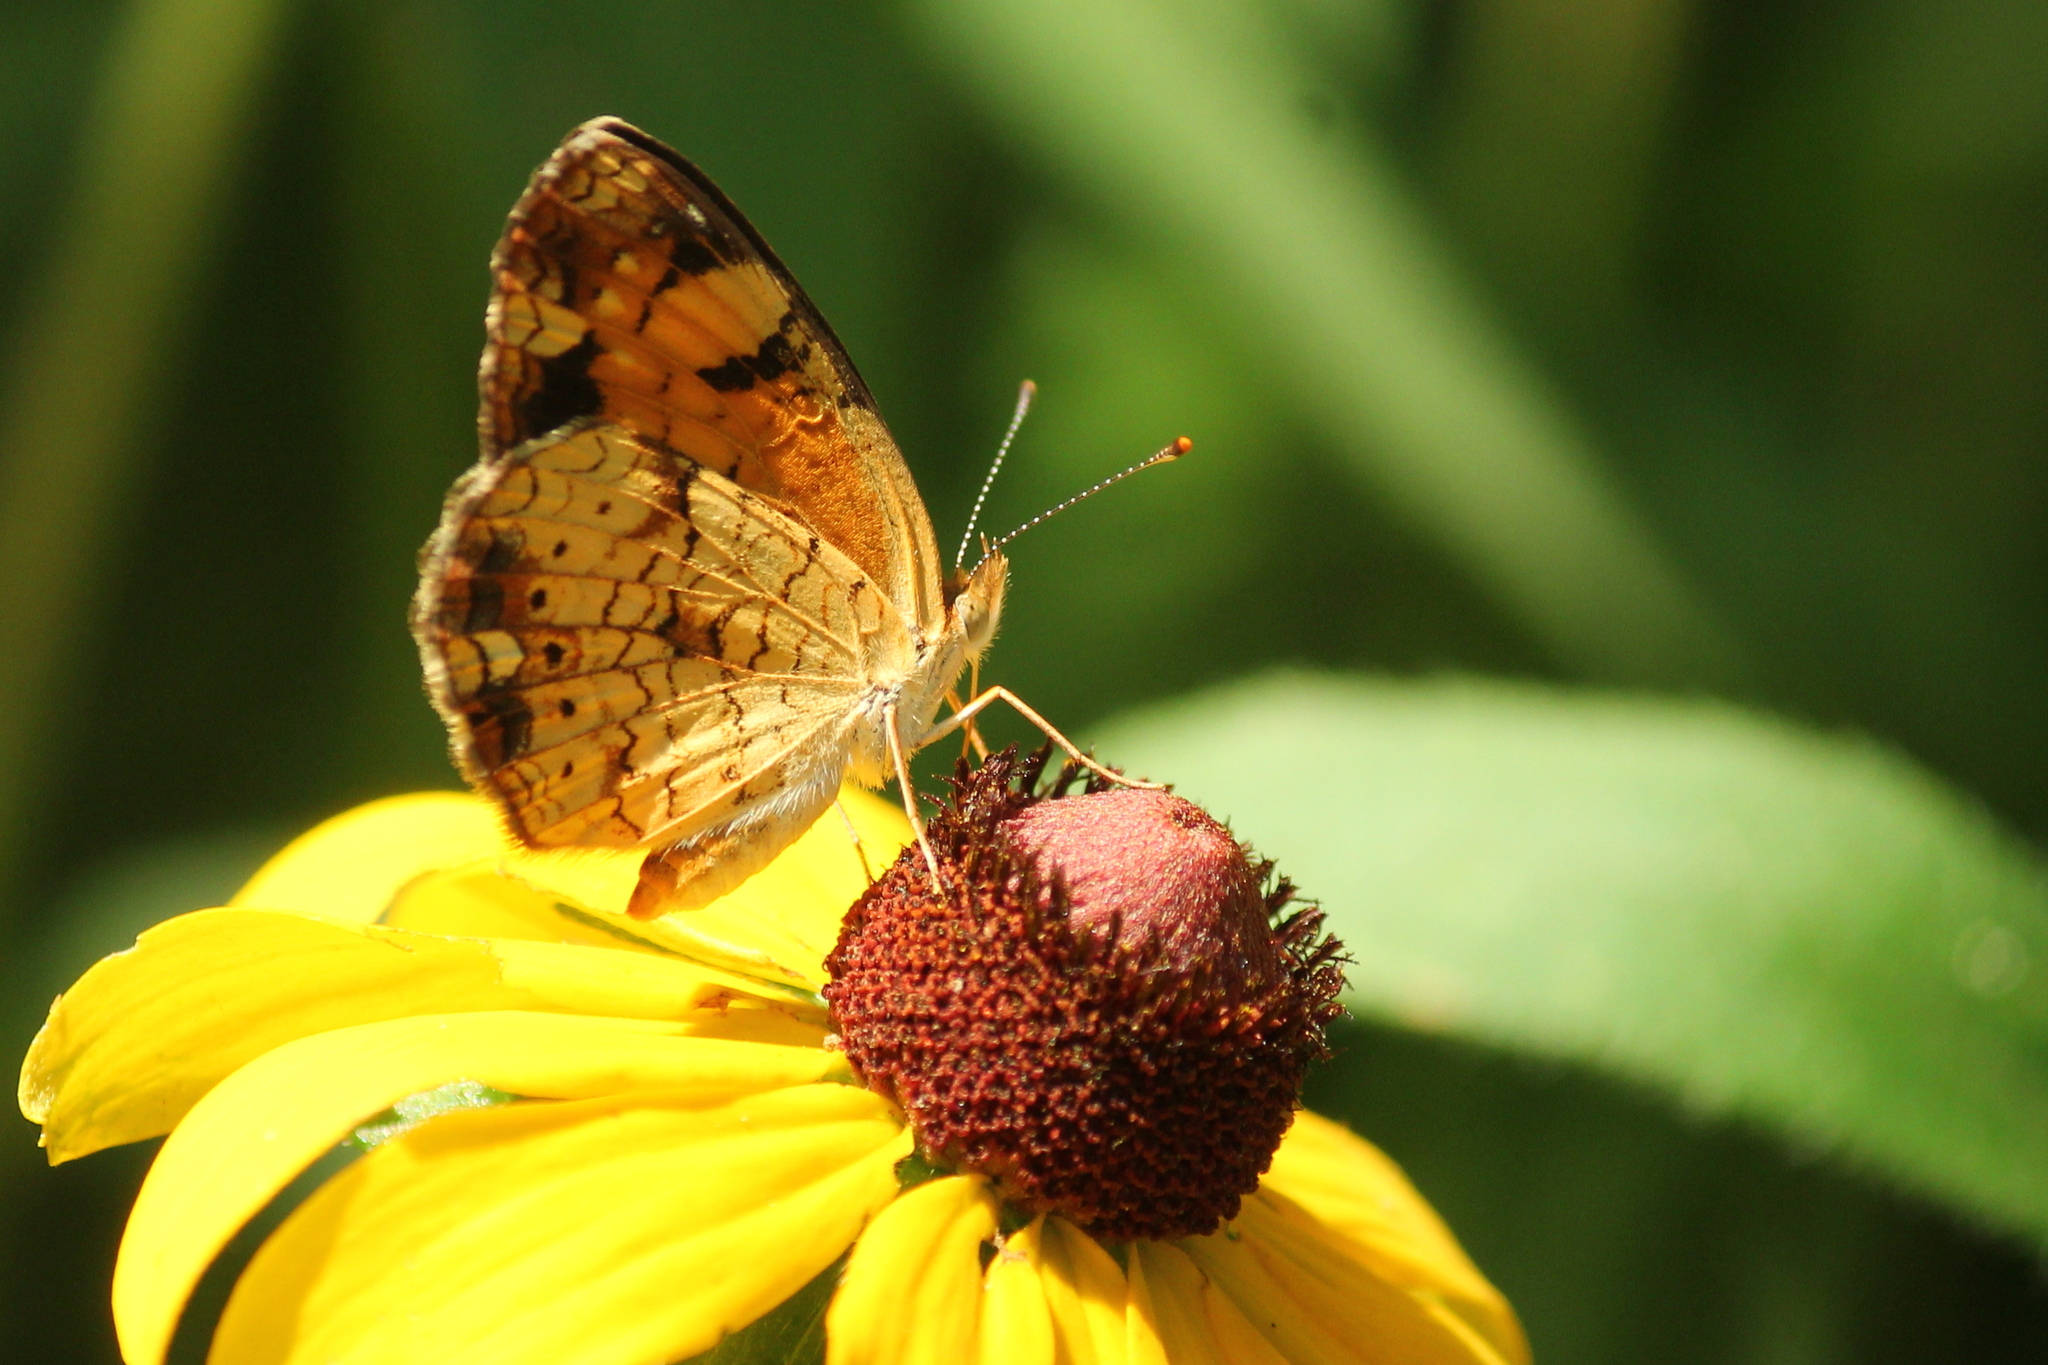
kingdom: Animalia
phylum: Arthropoda
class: Insecta
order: Lepidoptera
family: Nymphalidae
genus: Phyciodes
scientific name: Phyciodes tharos
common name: Pearl crescent
